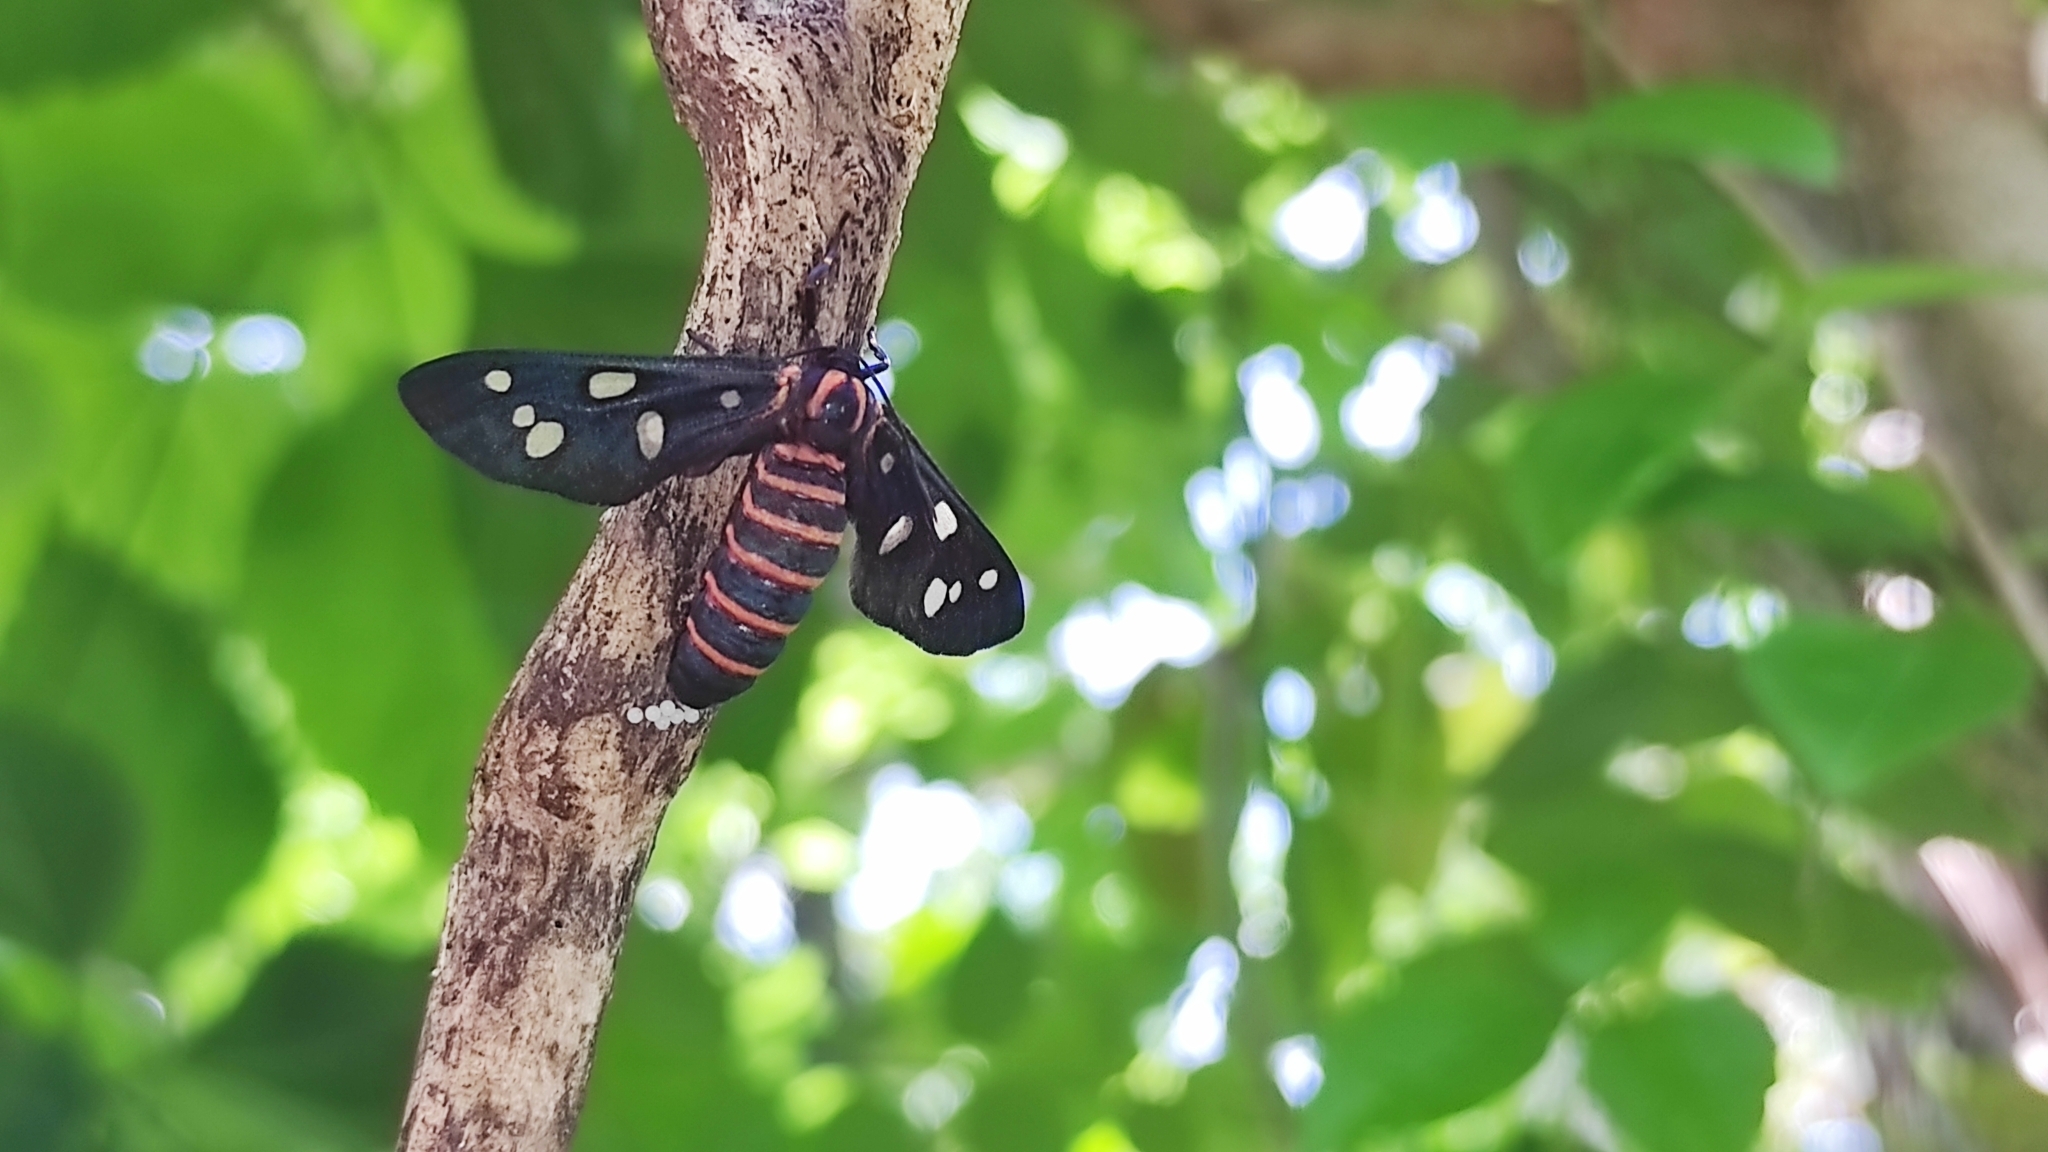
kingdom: Animalia
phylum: Arthropoda
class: Insecta
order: Lepidoptera
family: Erebidae
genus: Amata
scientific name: Amata passalis
